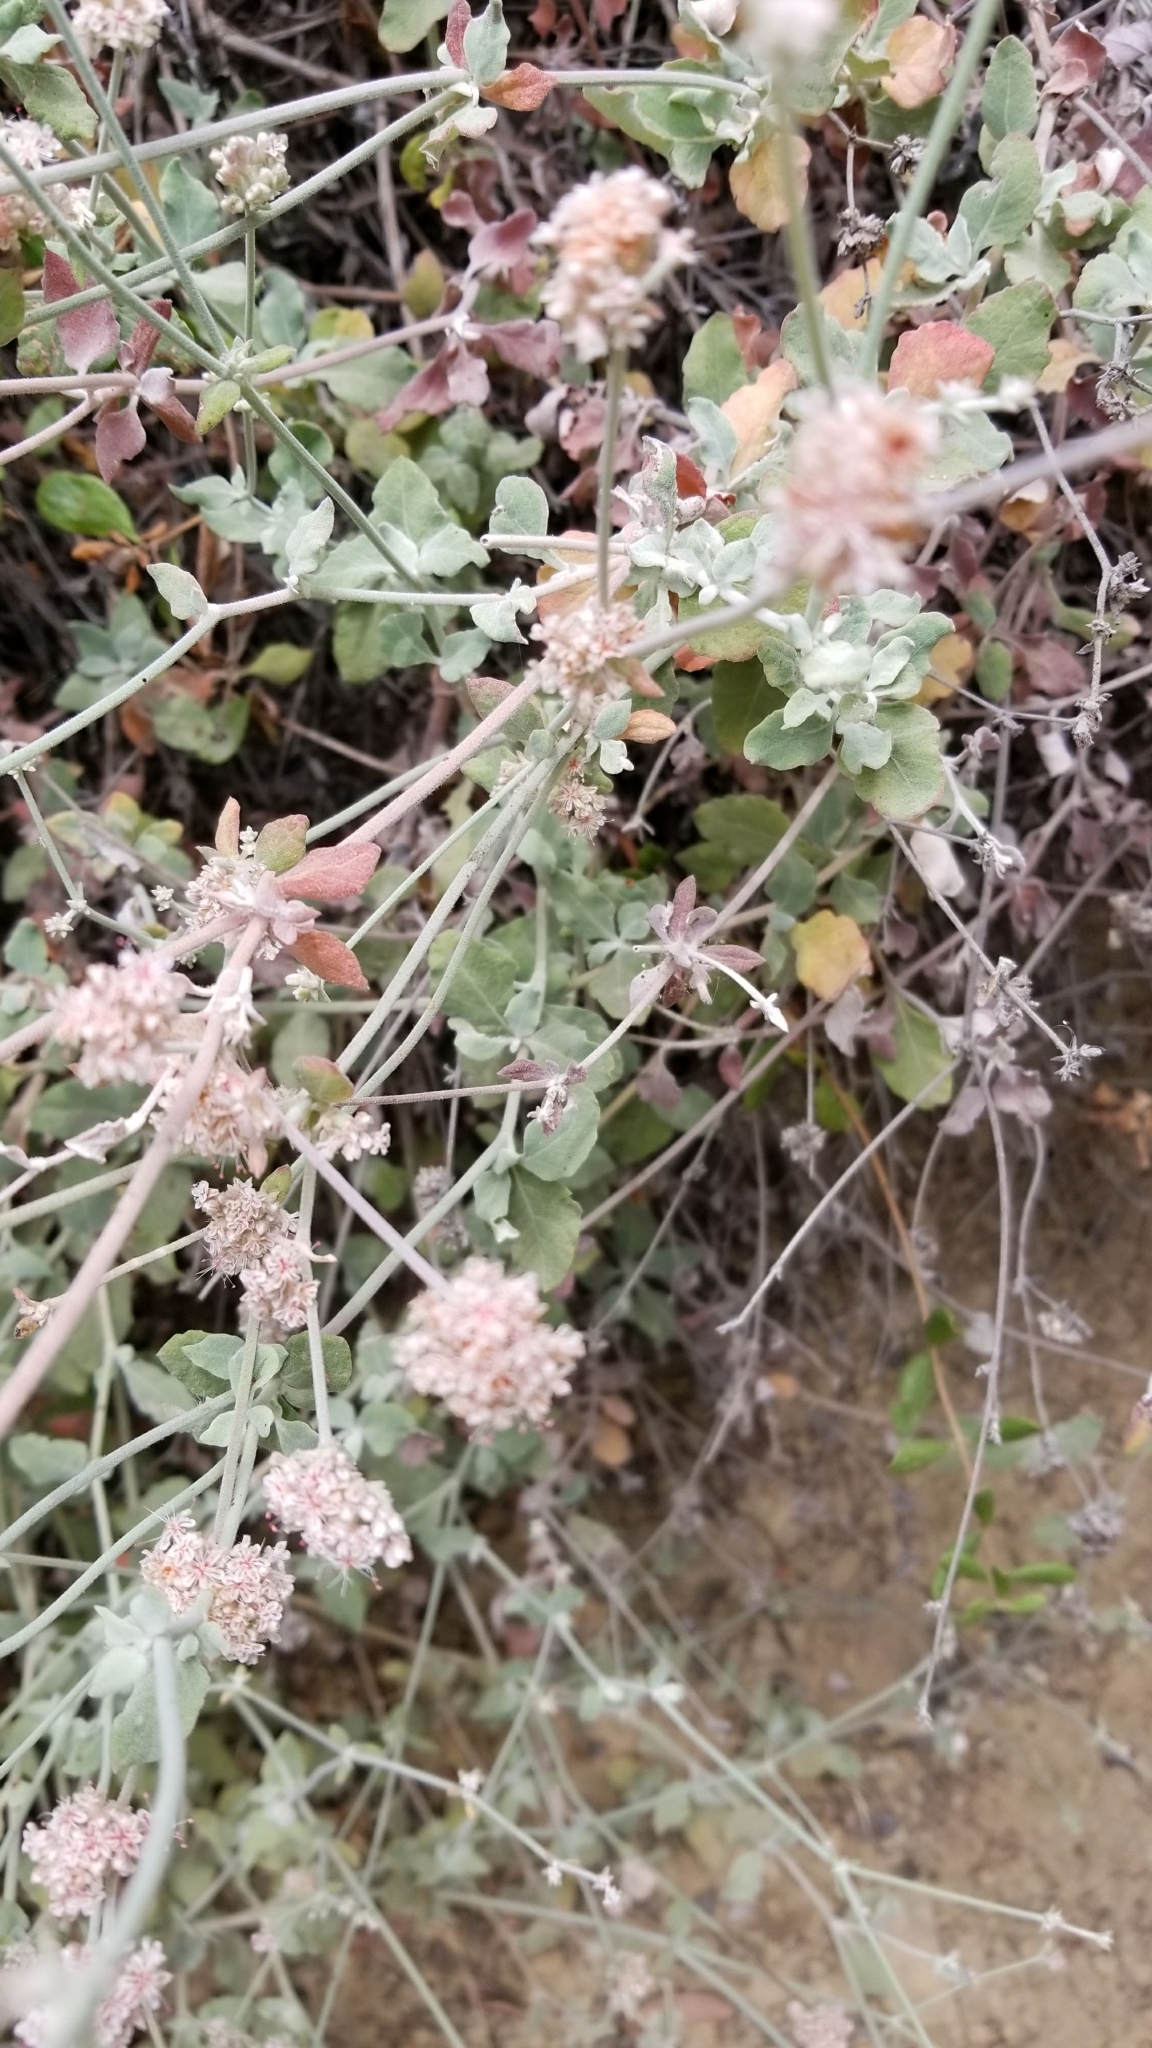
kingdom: Plantae
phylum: Tracheophyta
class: Magnoliopsida
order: Caryophyllales
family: Polygonaceae
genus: Eriogonum
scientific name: Eriogonum cinereum
